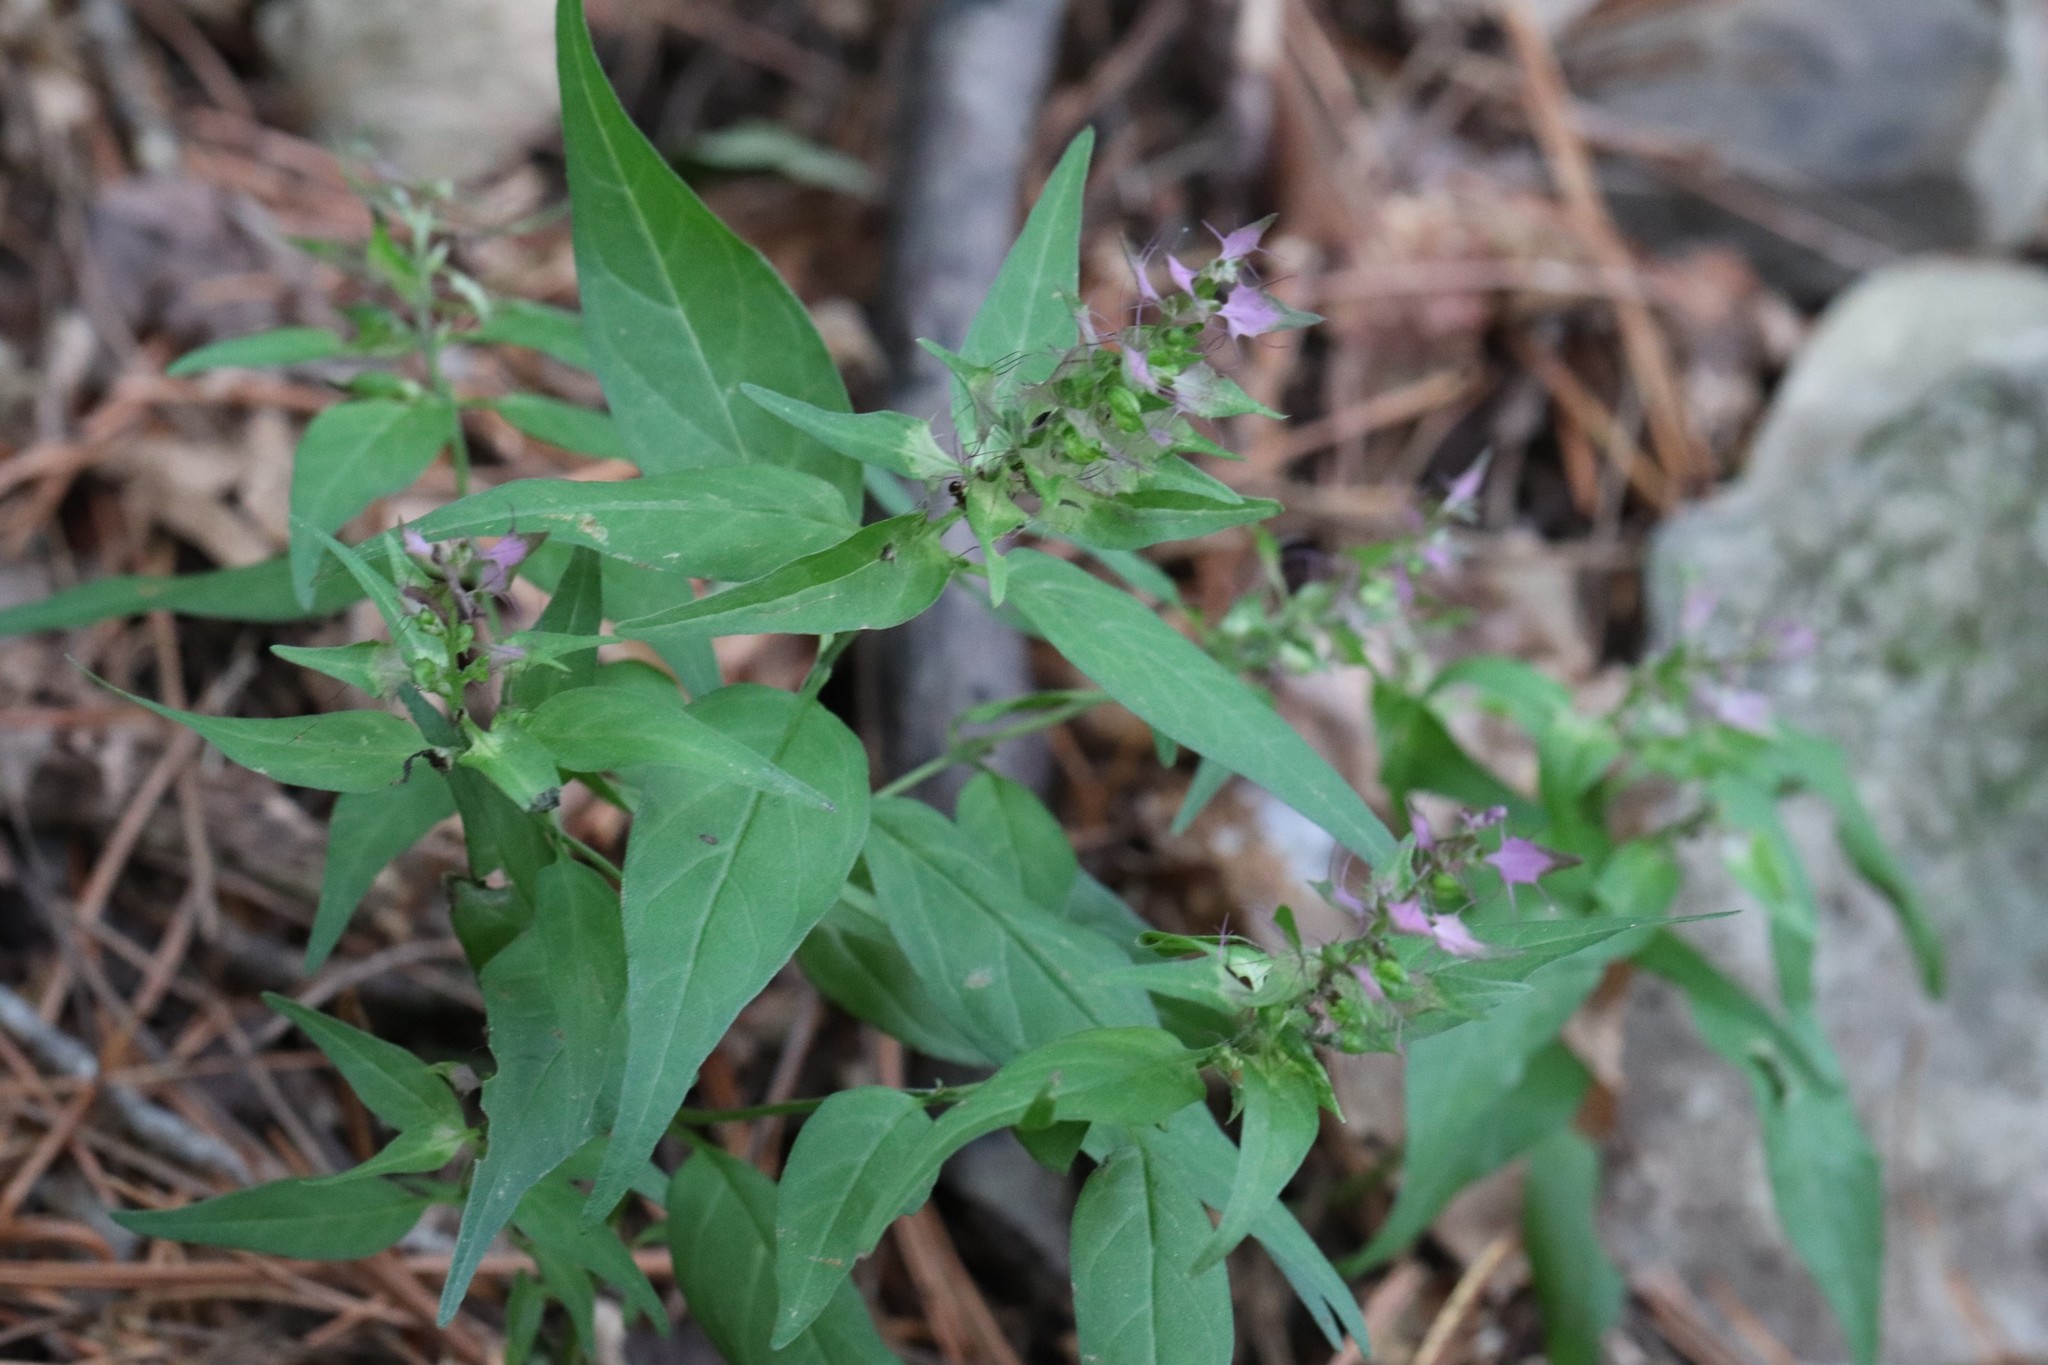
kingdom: Plantae
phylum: Tracheophyta
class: Magnoliopsida
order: Lamiales
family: Orobanchaceae
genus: Melampyrum
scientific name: Melampyrum setaceum
